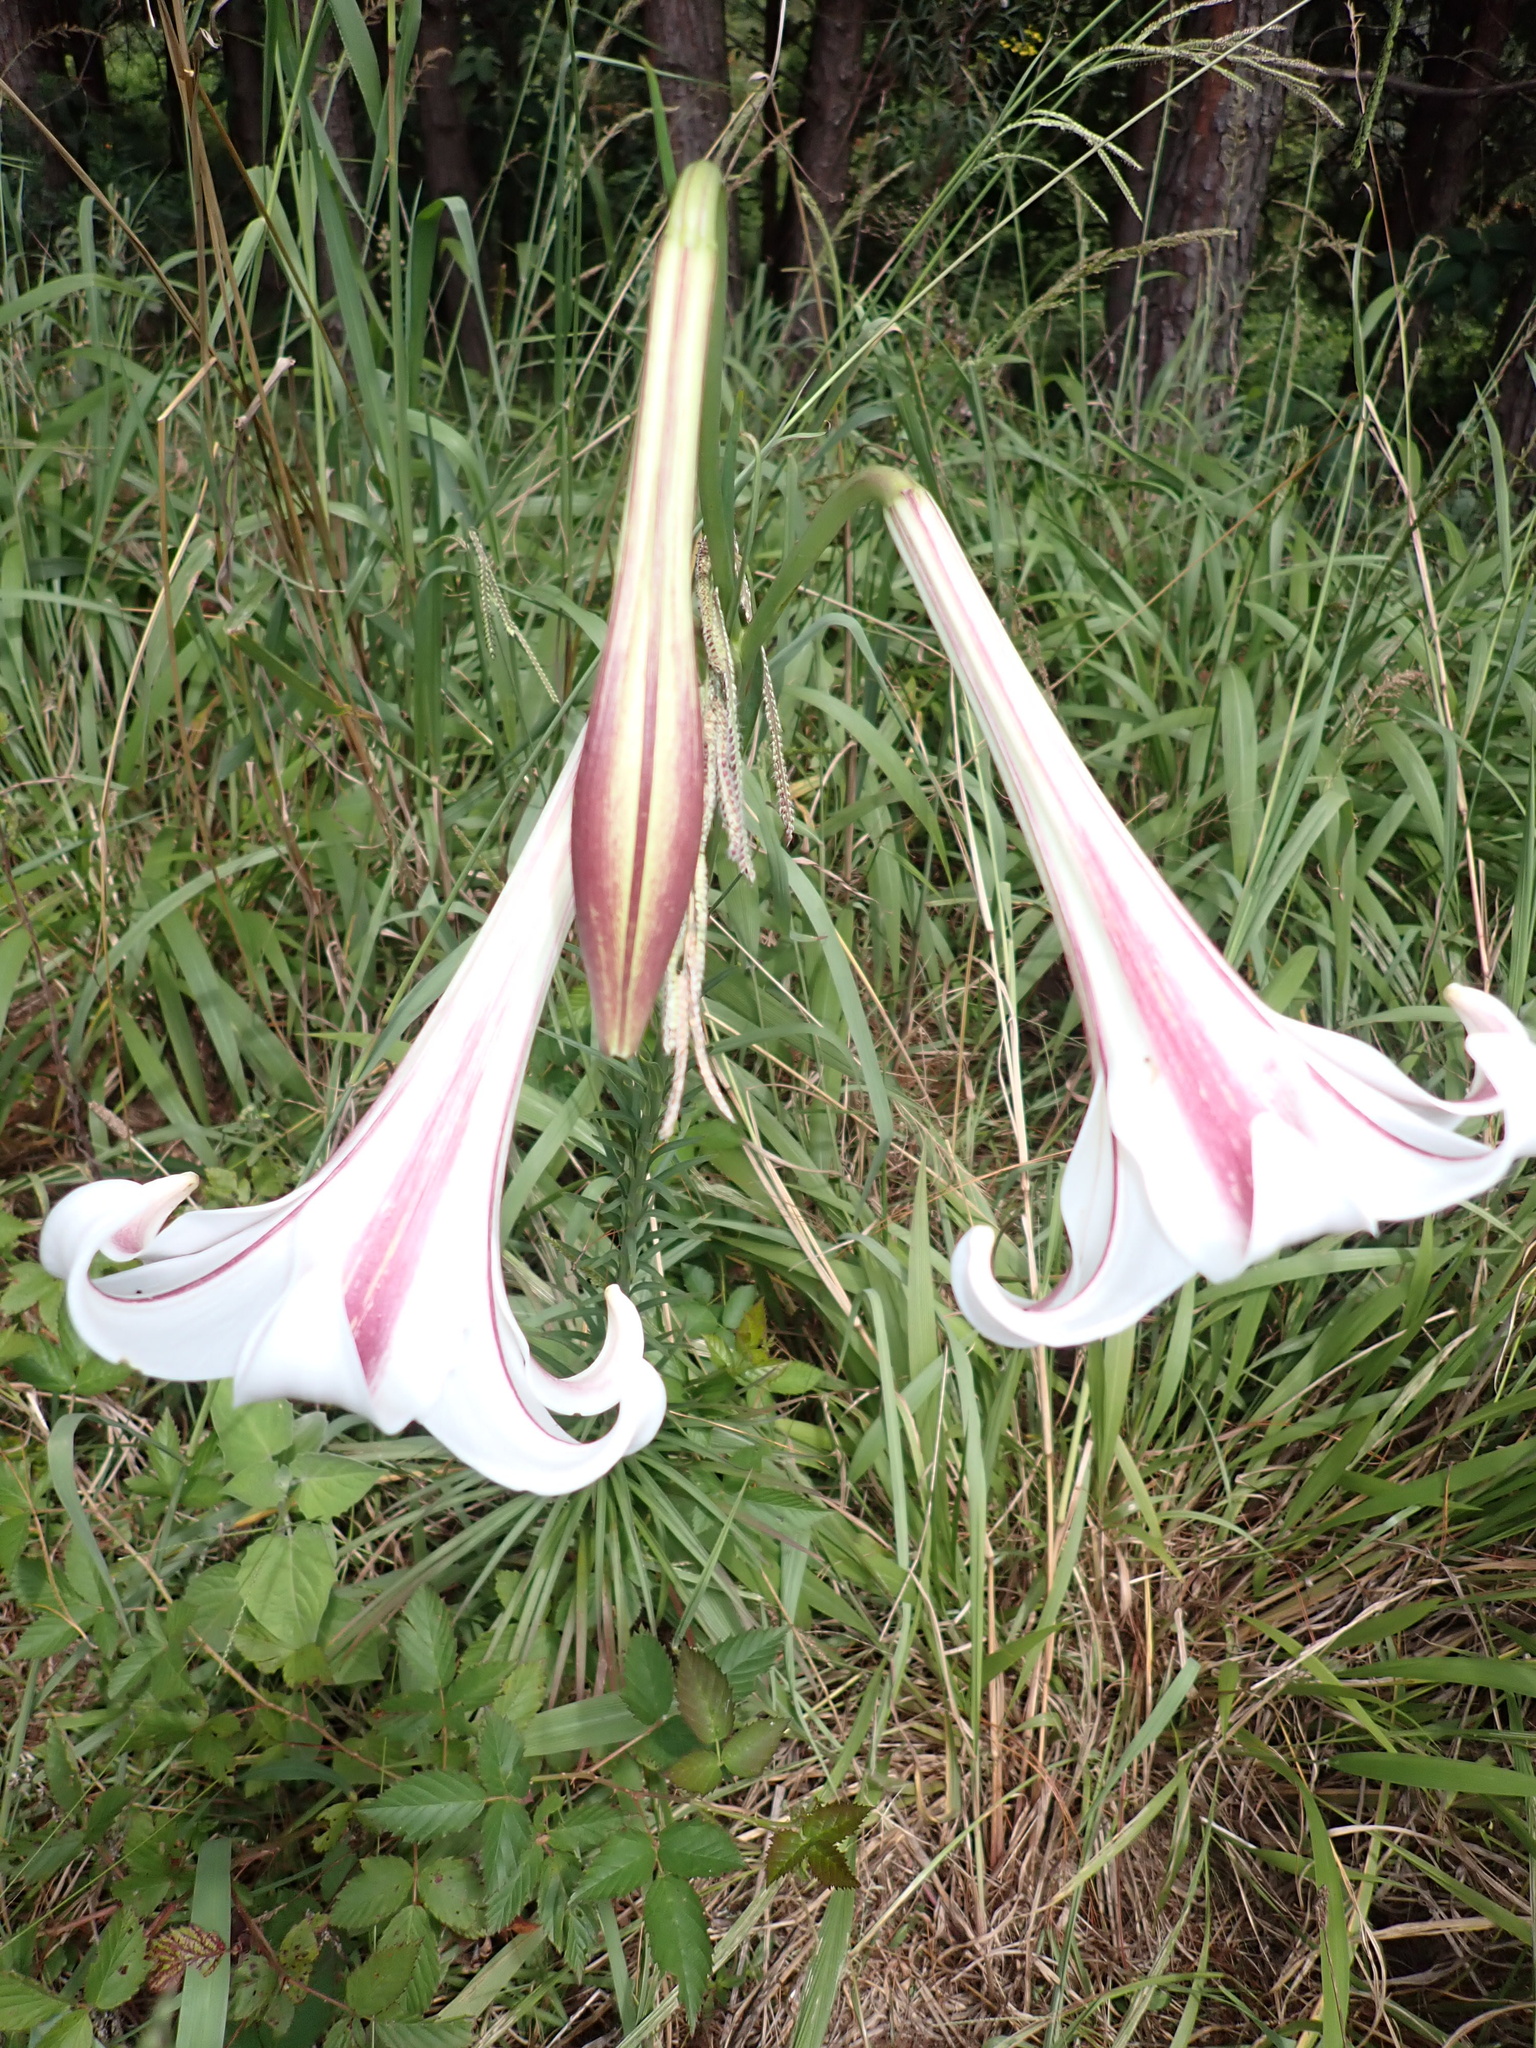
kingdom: Plantae
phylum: Tracheophyta
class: Liliopsida
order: Liliales
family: Liliaceae
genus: Lilium
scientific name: Lilium formosanum
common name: Formosa lily
